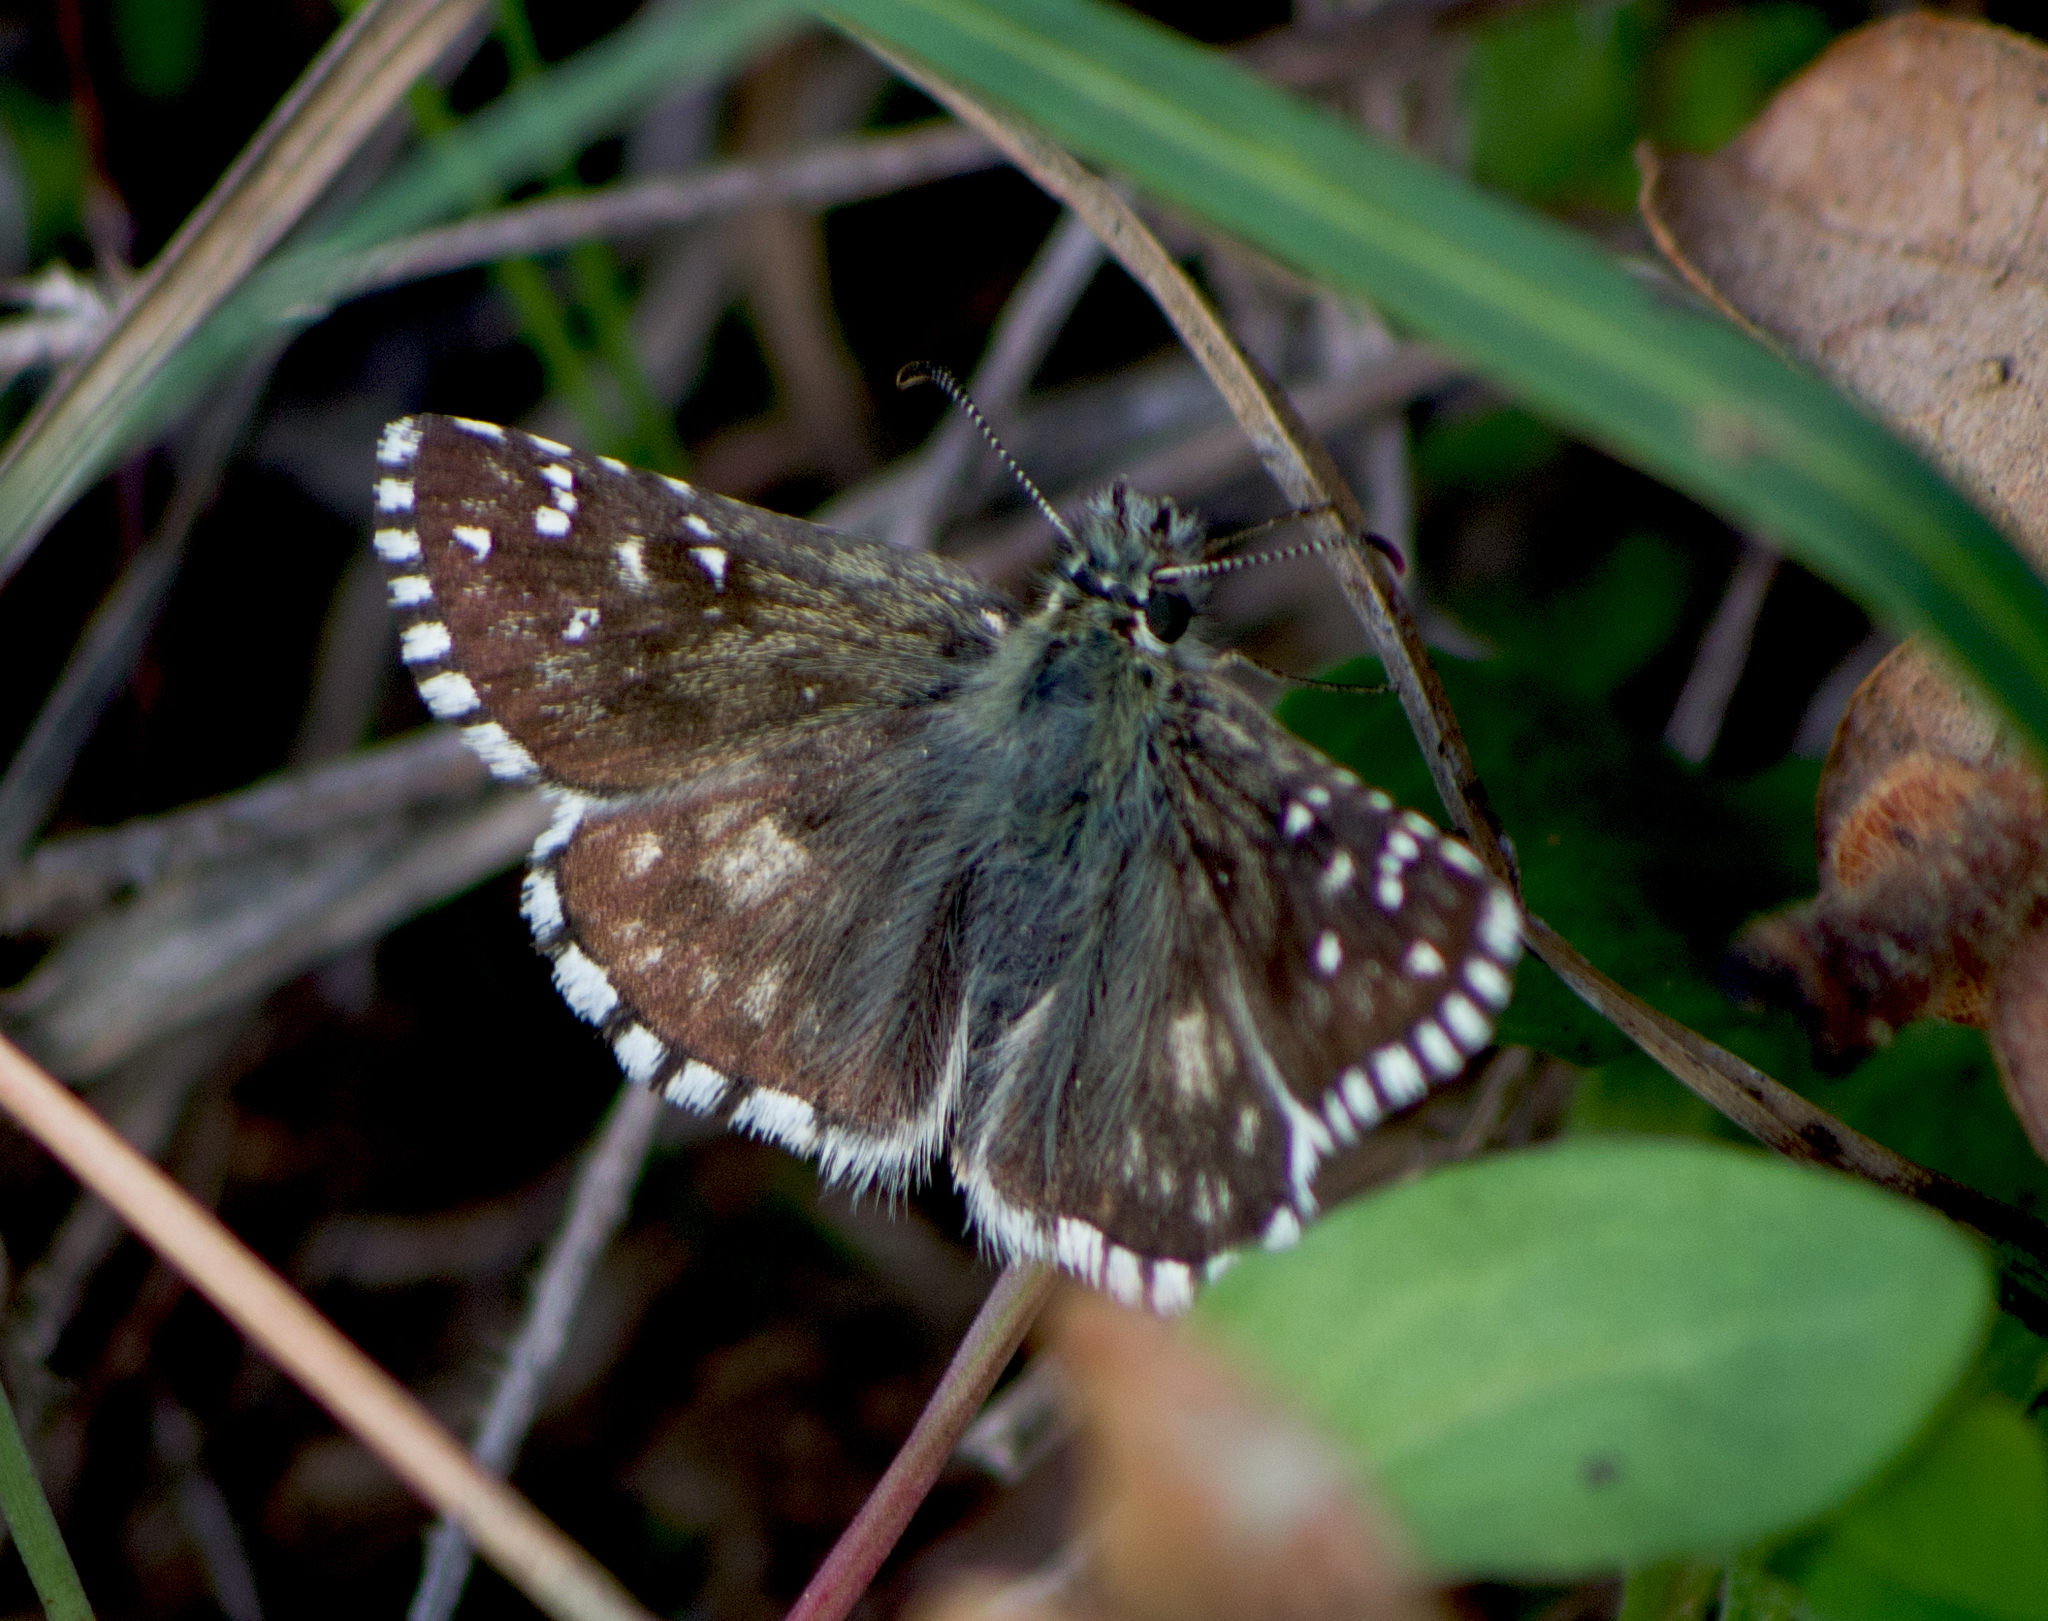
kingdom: Animalia
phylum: Arthropoda
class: Insecta
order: Lepidoptera
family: Hesperiidae
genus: Pyrgus
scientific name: Pyrgus armoricanus
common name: Oberthür's grizzled skipper
